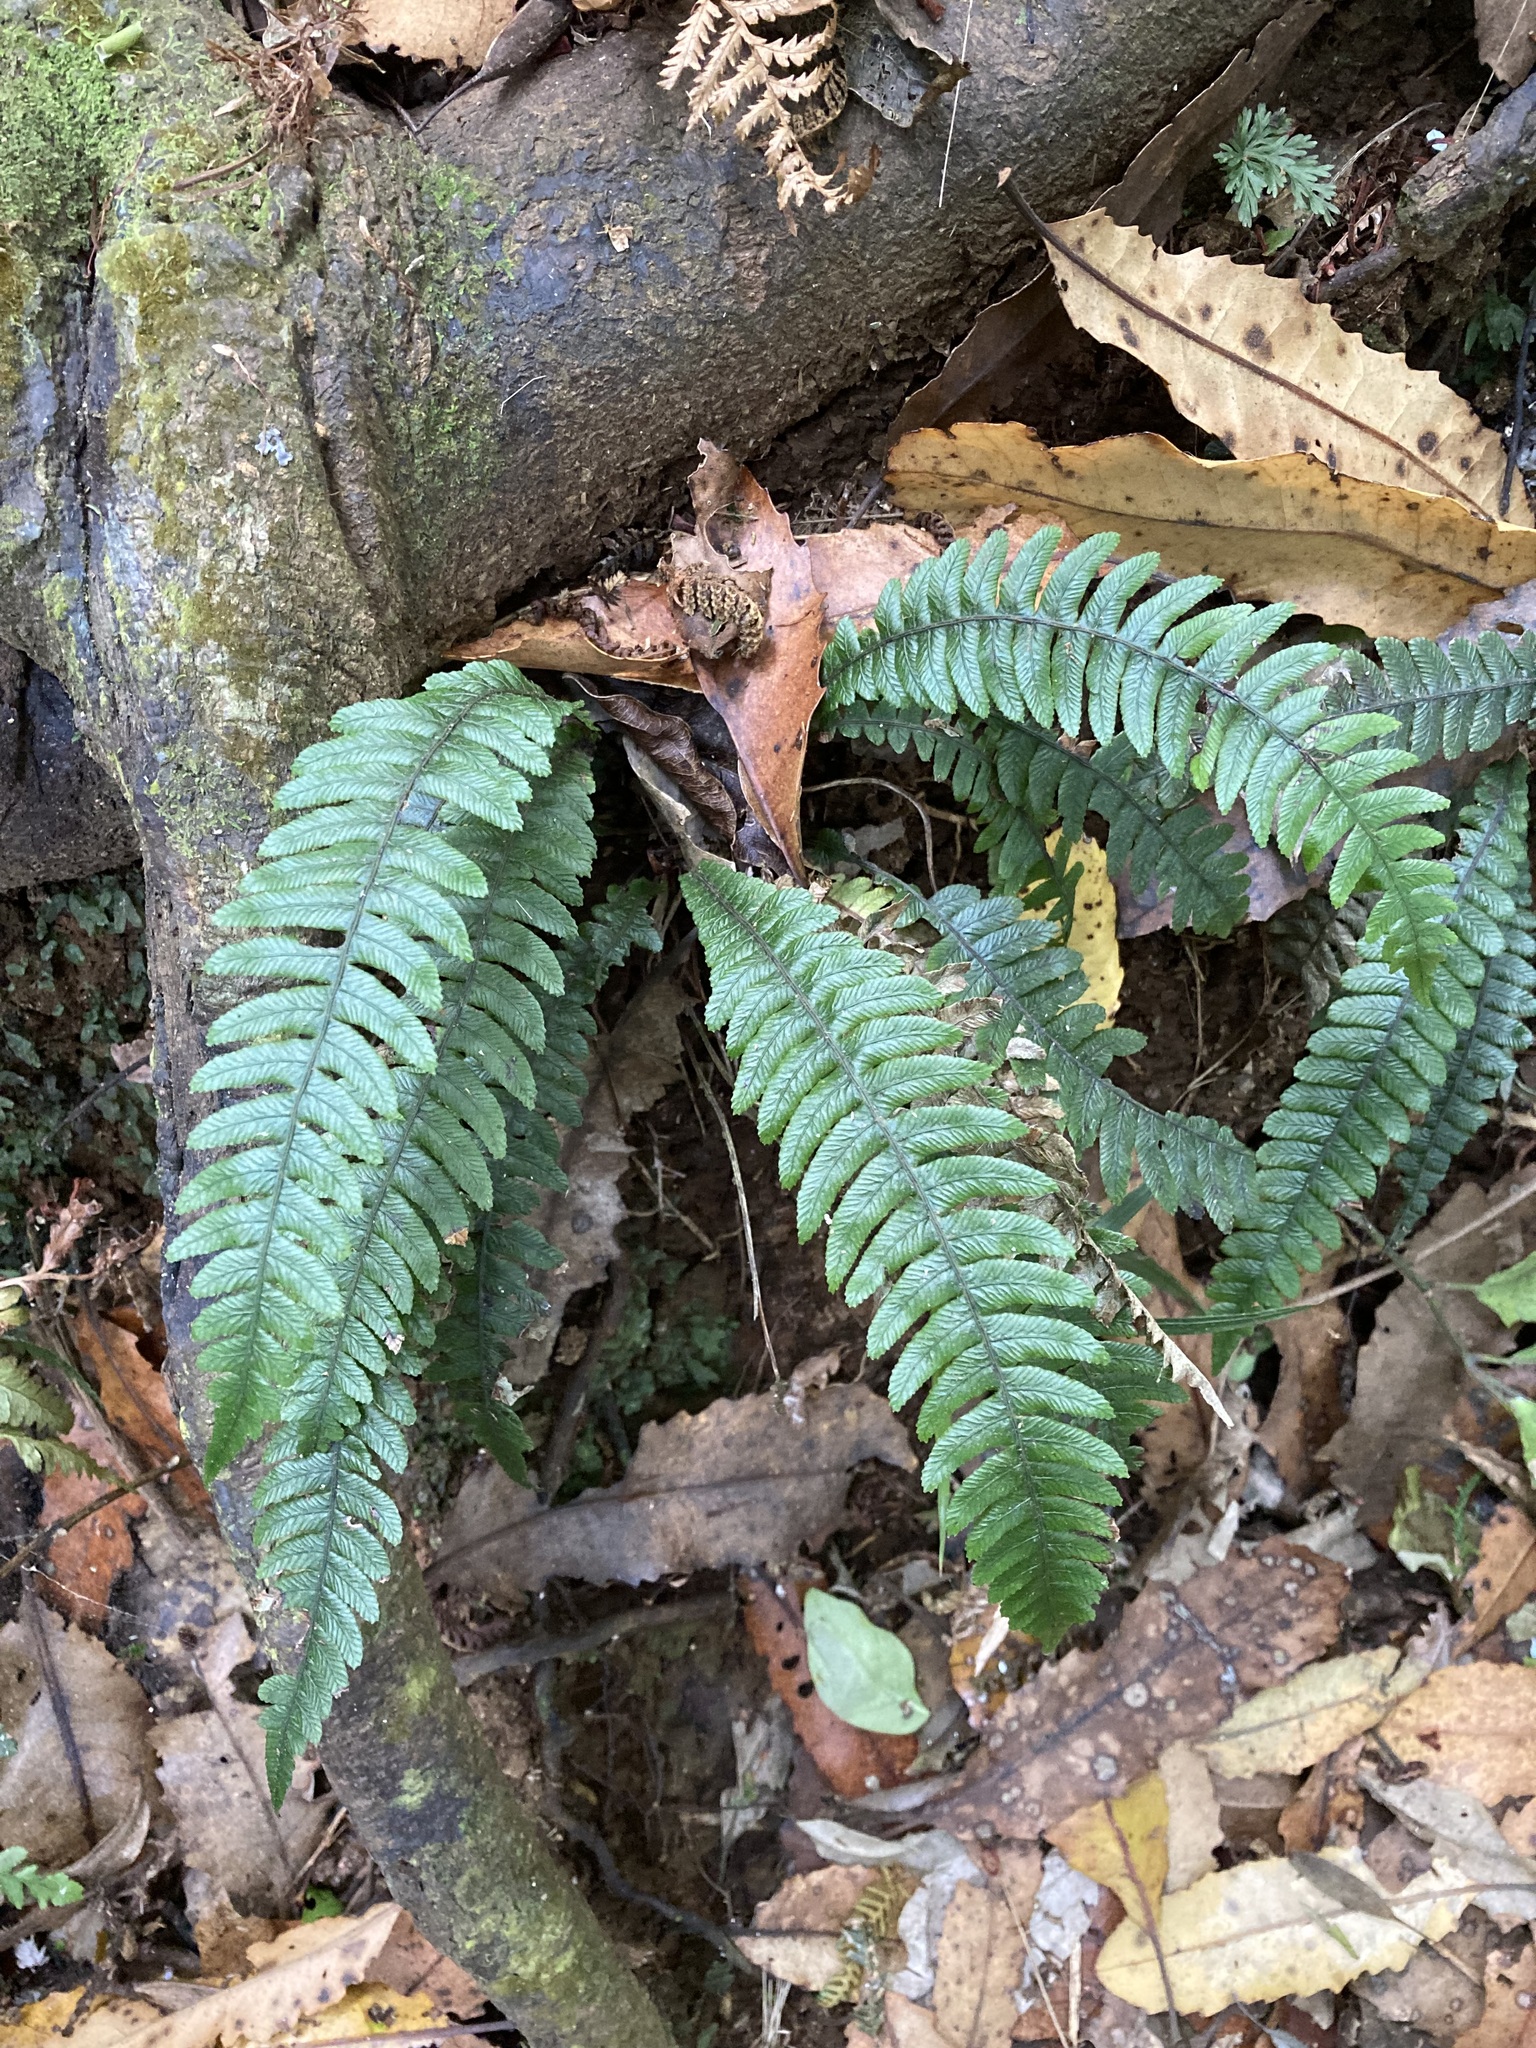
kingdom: Plantae
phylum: Tracheophyta
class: Polypodiopsida
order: Polypodiales
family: Blechnaceae
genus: Austroblechnum
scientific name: Austroblechnum lanceolatum
